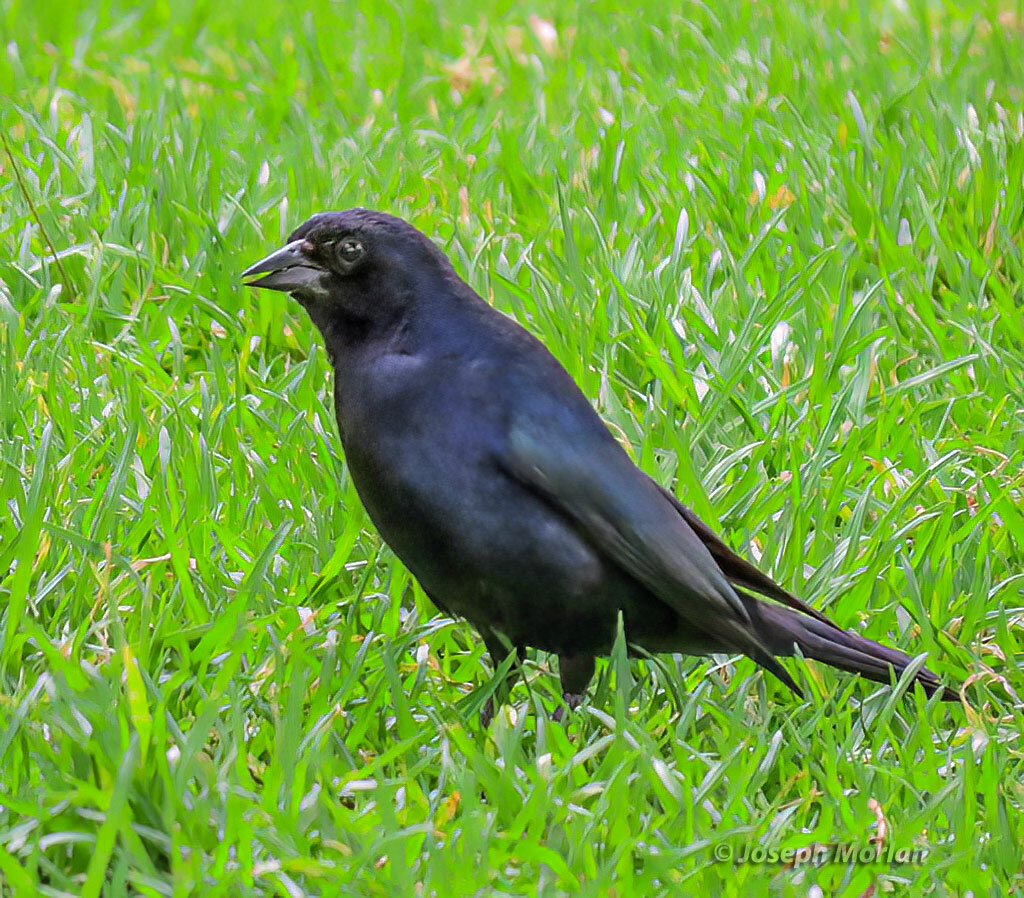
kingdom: Animalia
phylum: Chordata
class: Aves
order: Passeriformes
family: Icteridae
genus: Molothrus
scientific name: Molothrus bonariensis
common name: Shiny cowbird
